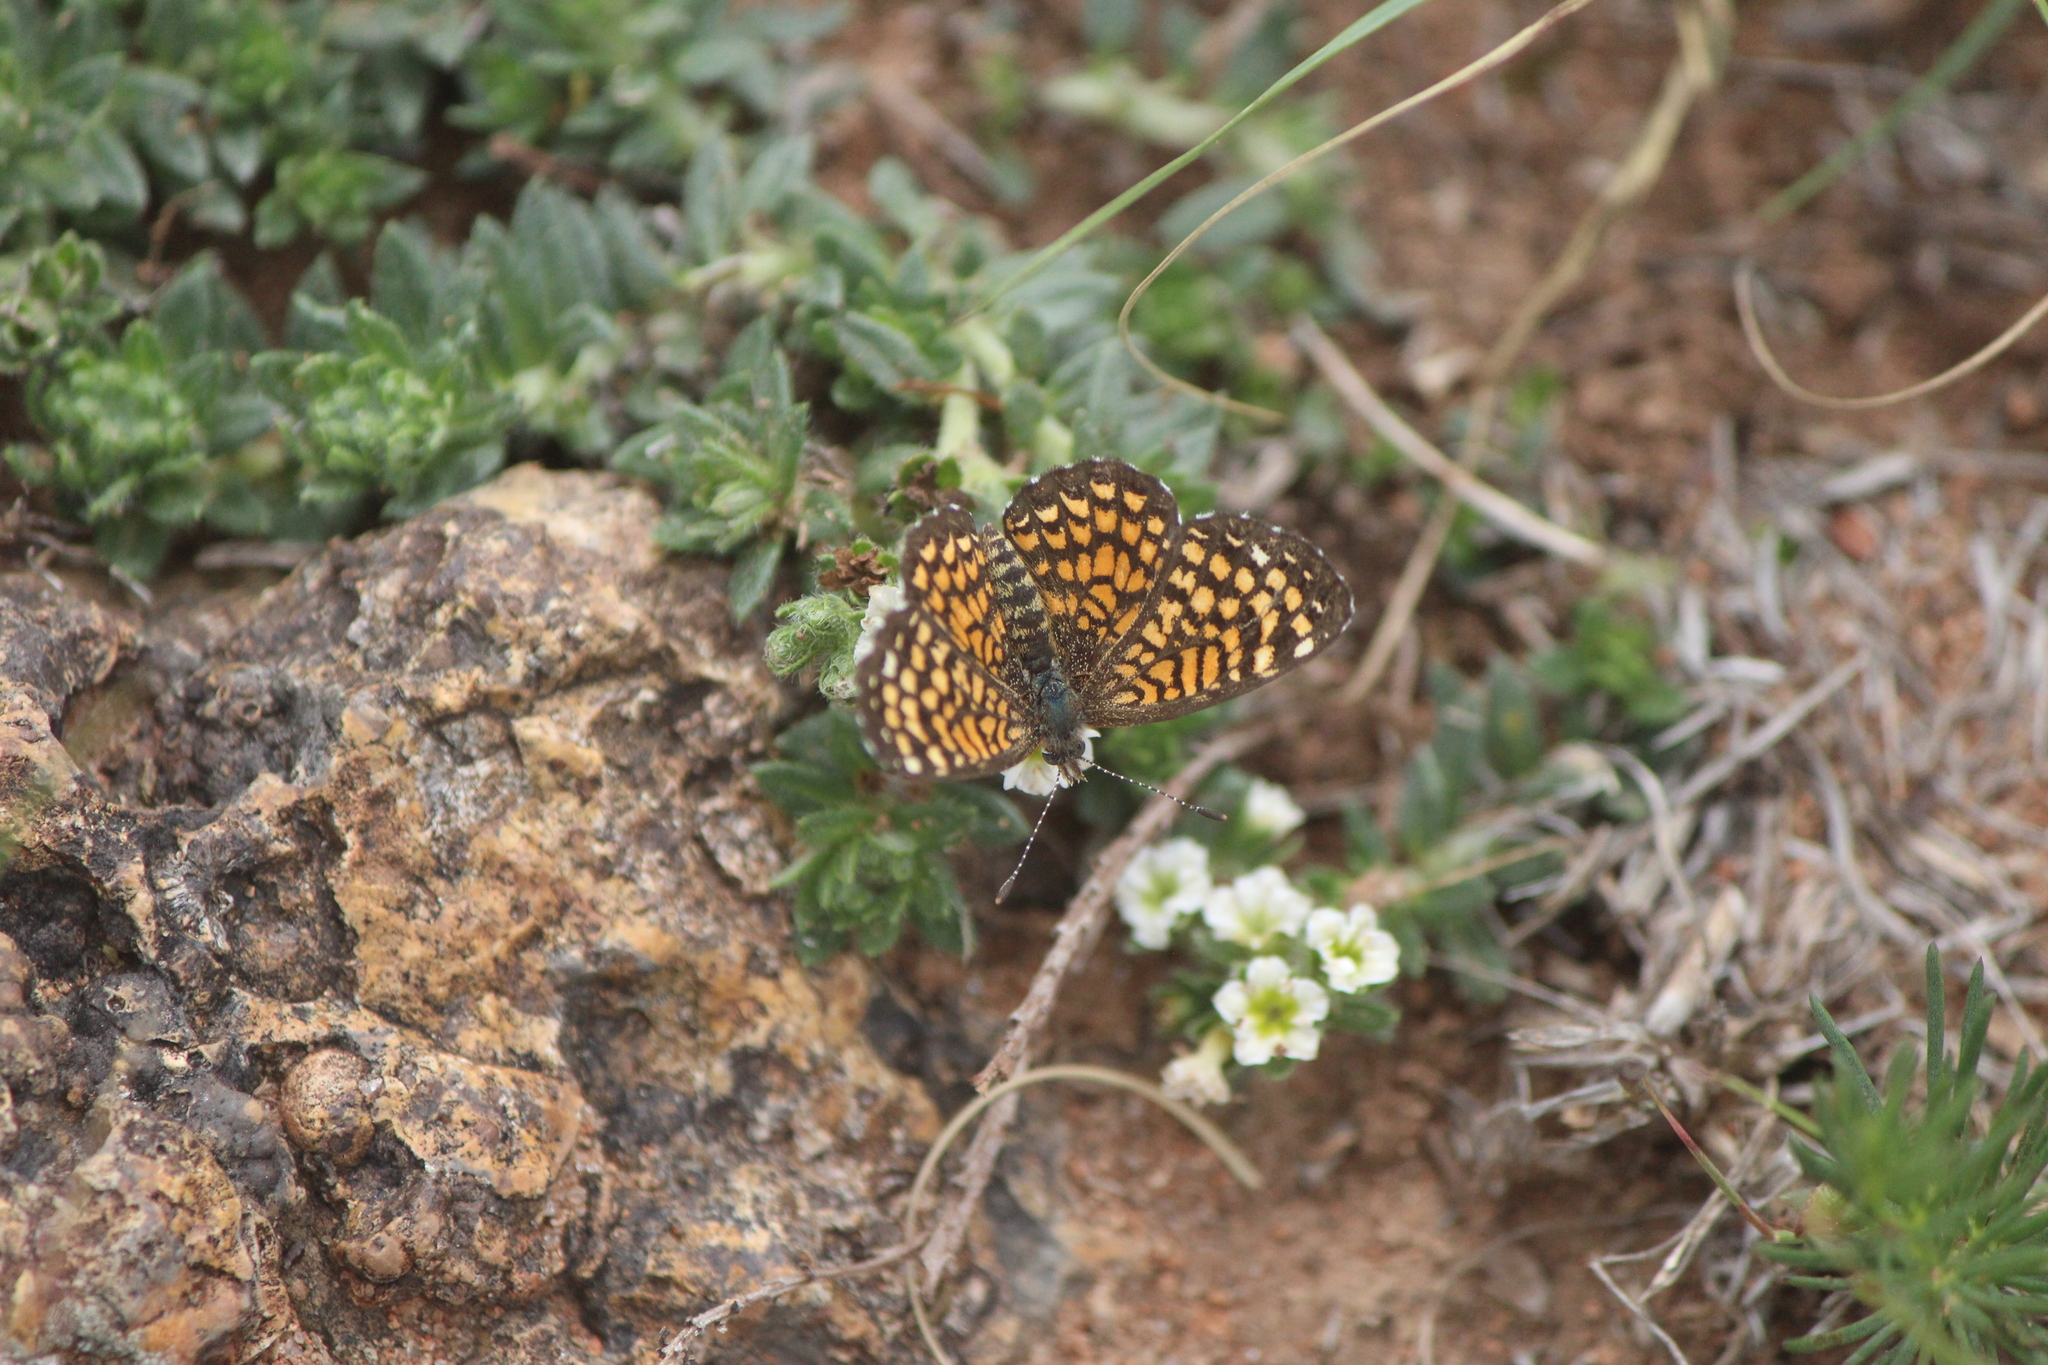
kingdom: Animalia
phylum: Arthropoda
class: Insecta
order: Lepidoptera
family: Nymphalidae
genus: Texola
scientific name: Texola elada
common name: Elada checkerspot
